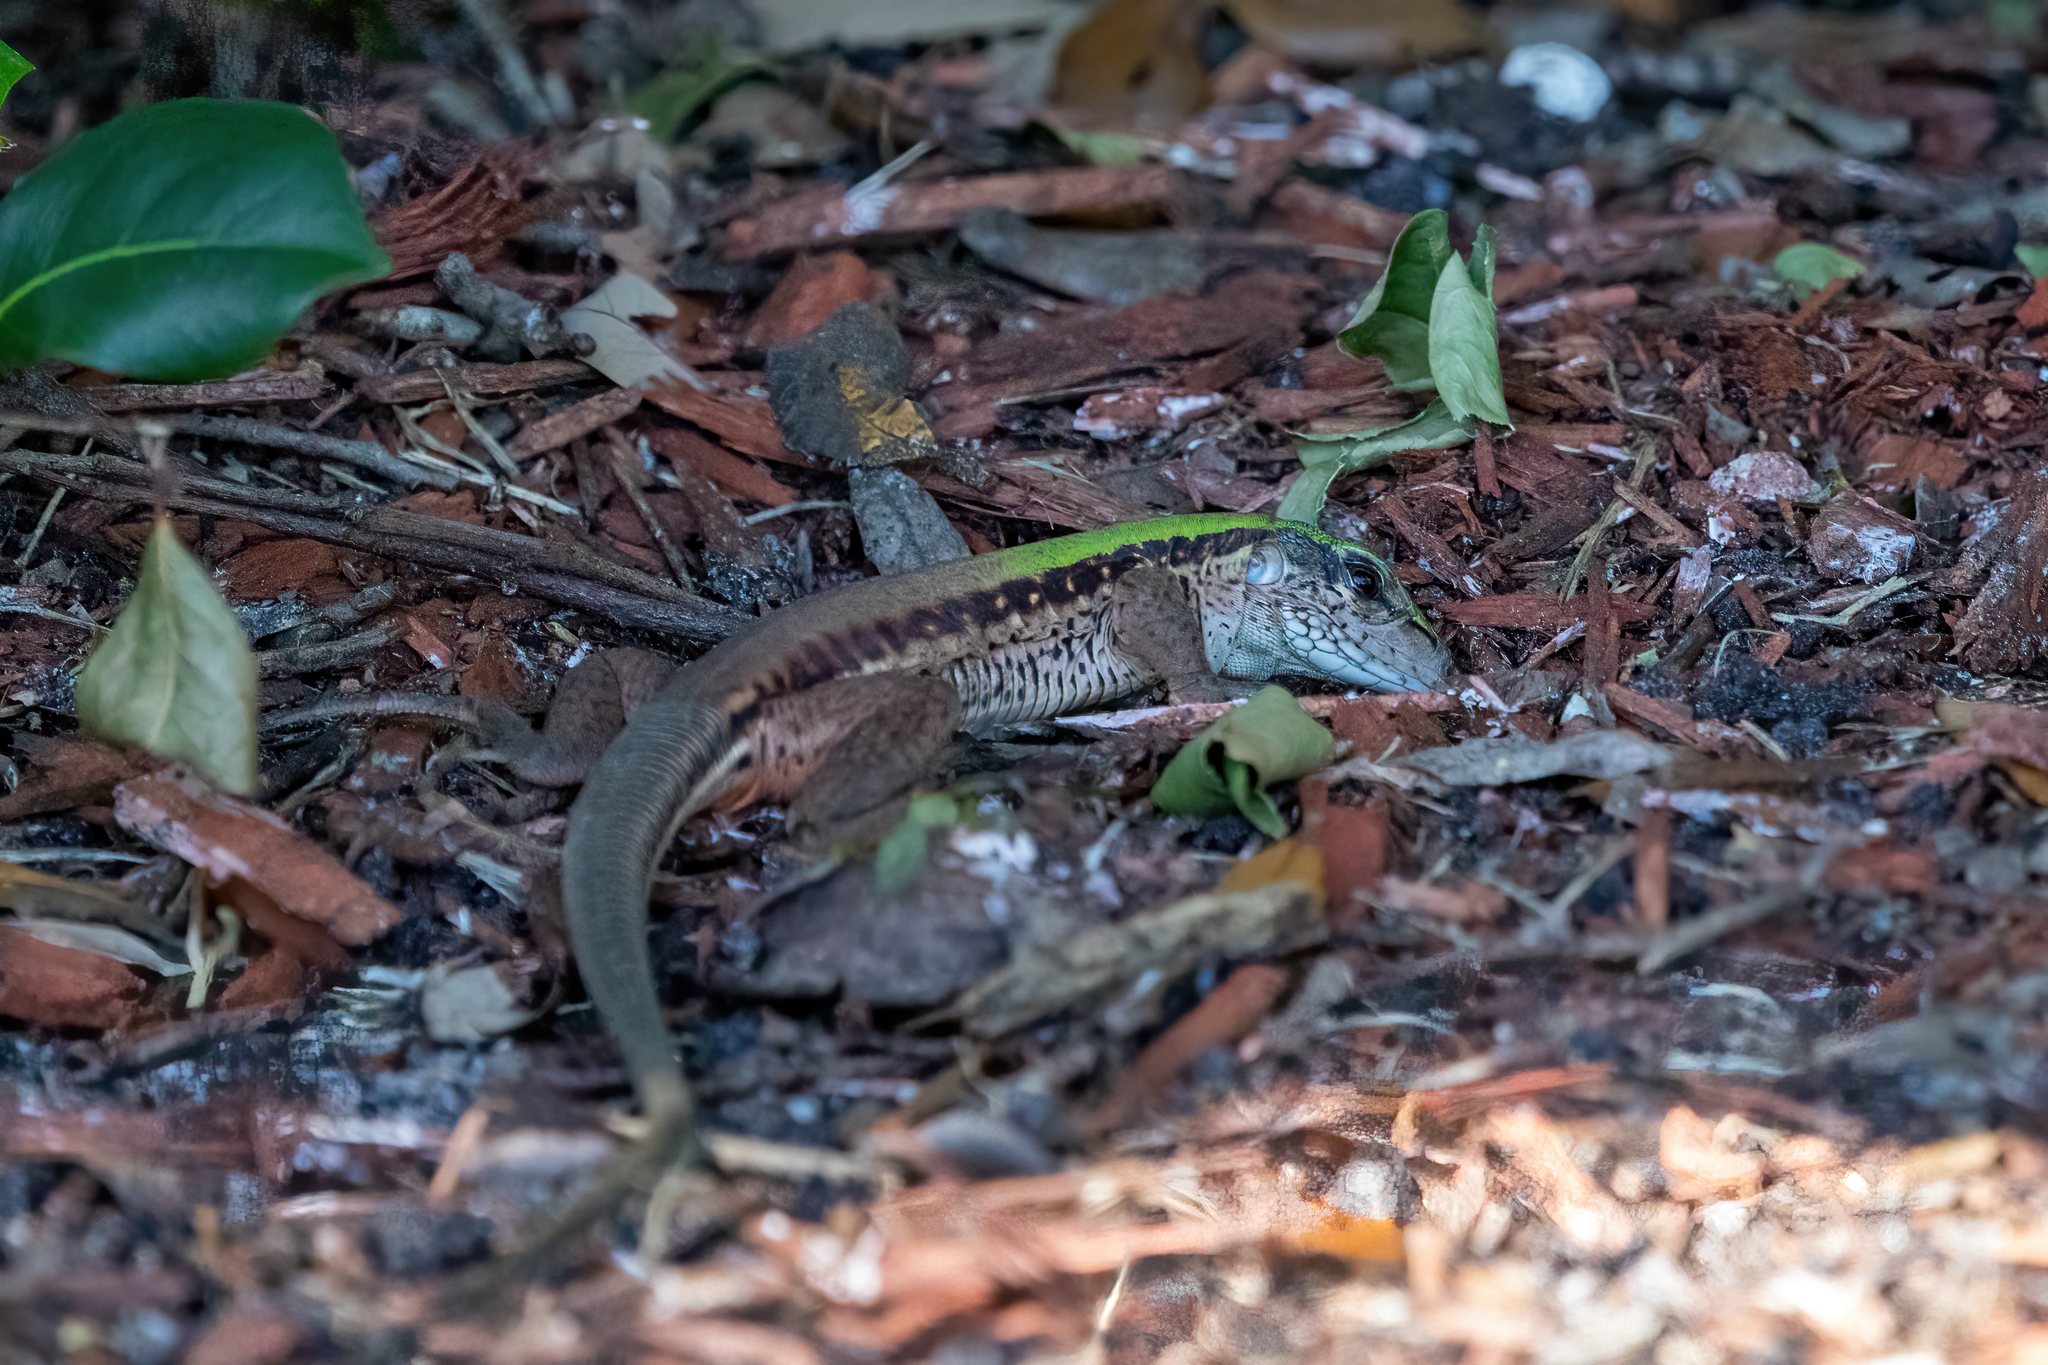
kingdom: Animalia
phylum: Chordata
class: Squamata
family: Teiidae
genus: Ameiva
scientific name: Ameiva ameiva
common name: Giant ameiva
